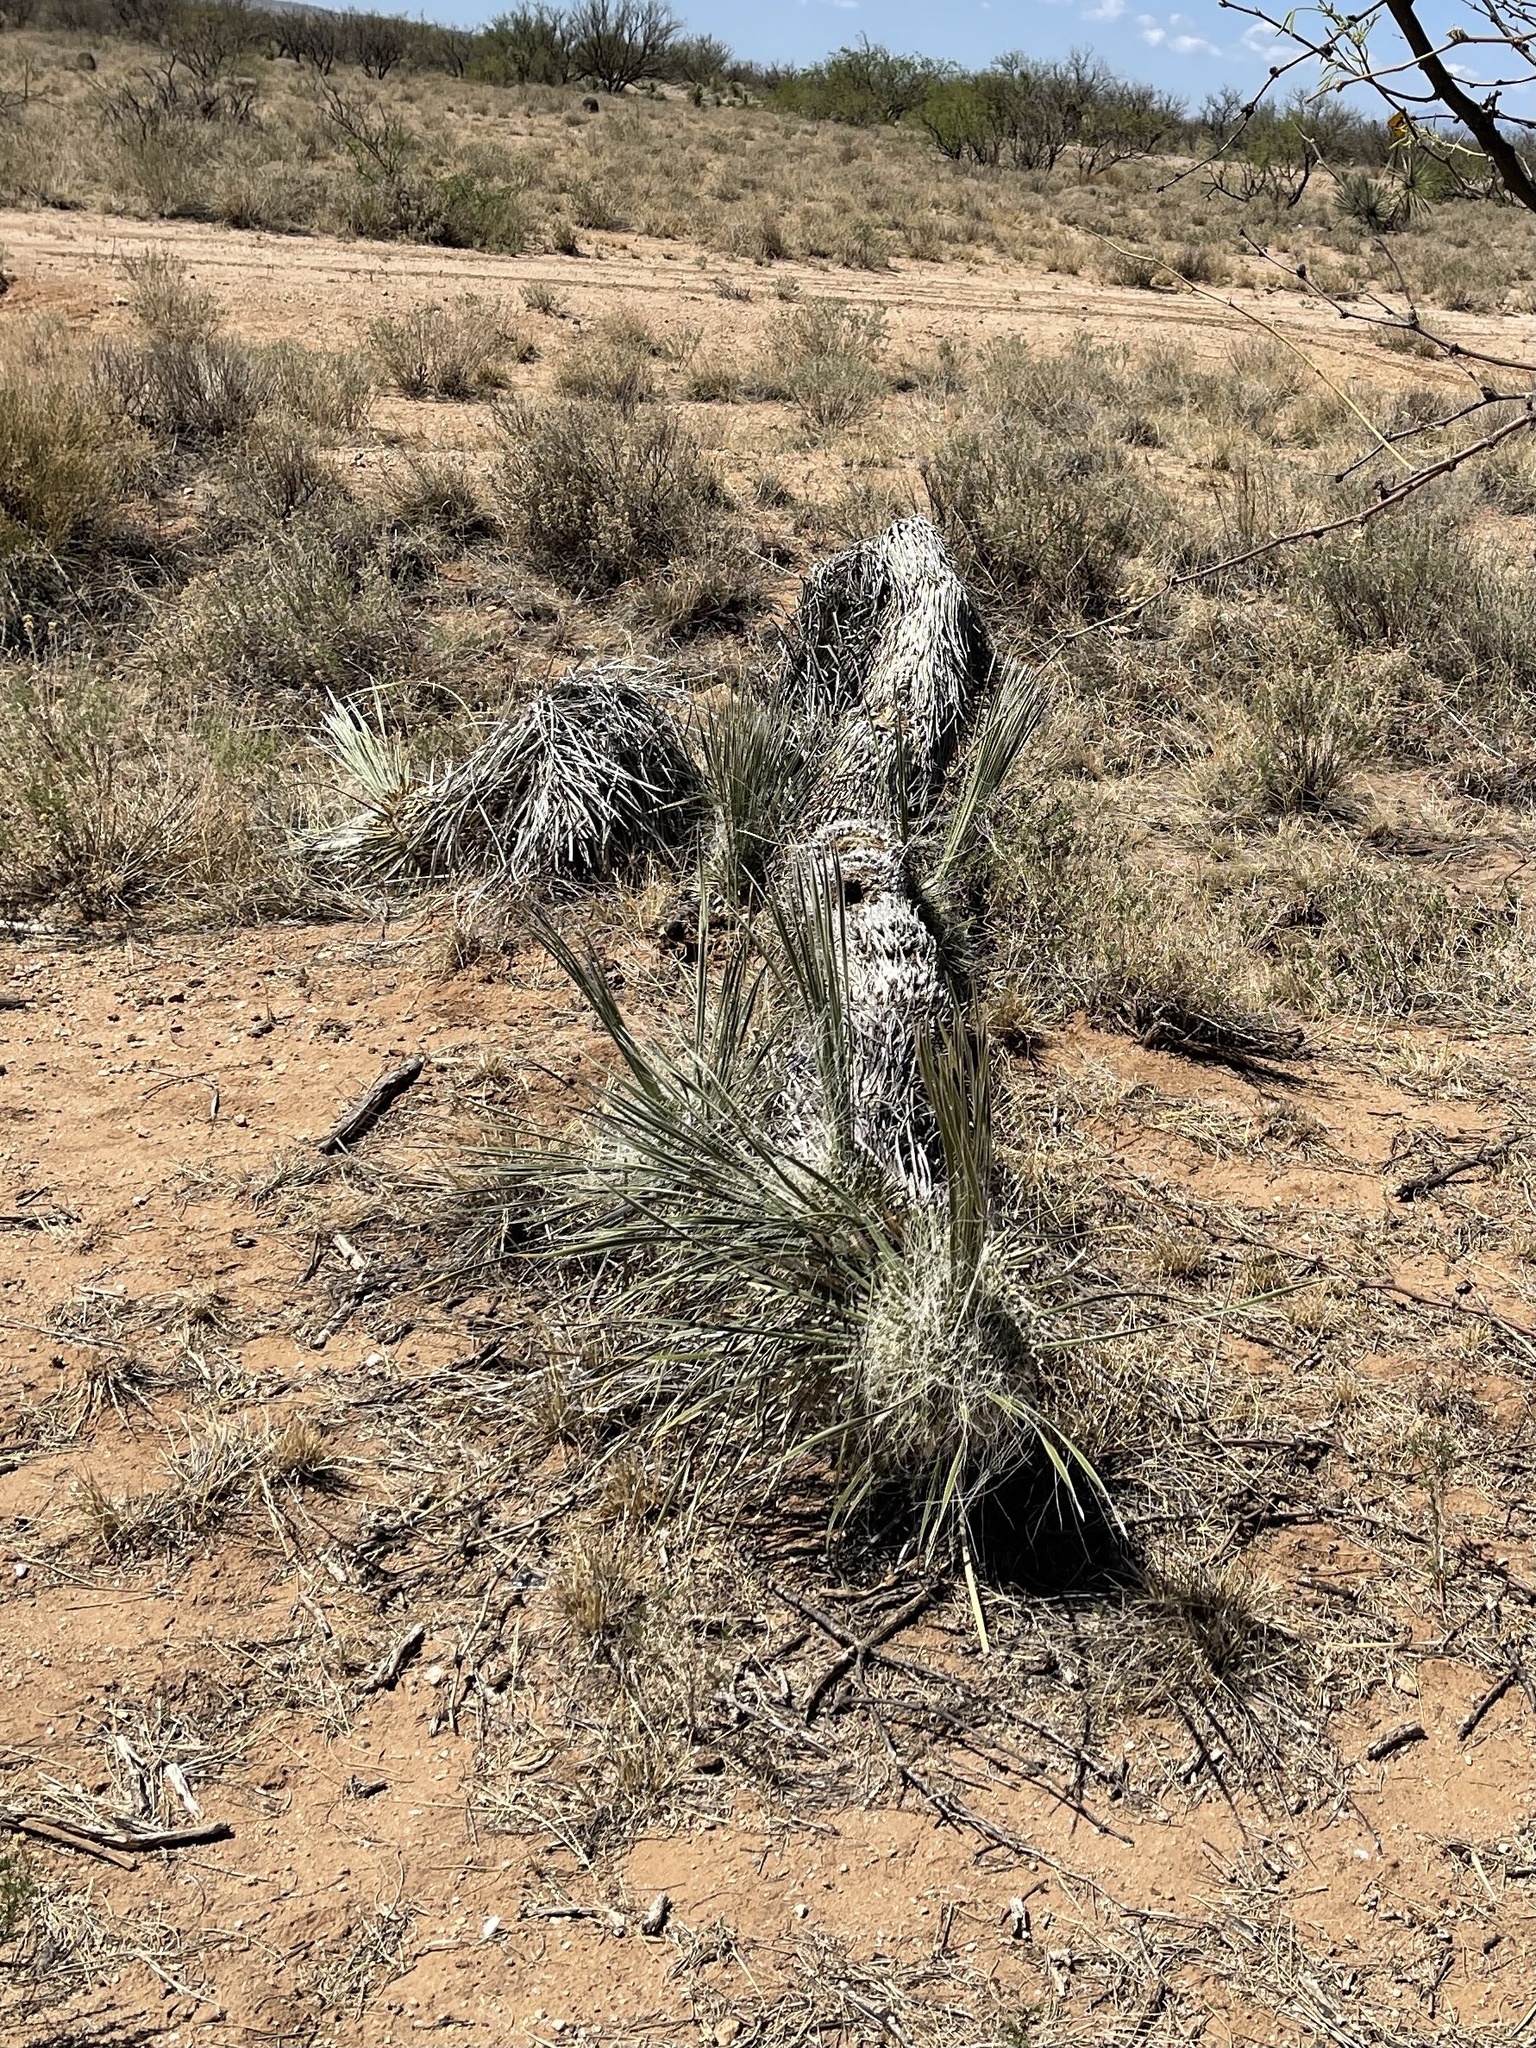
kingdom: Plantae
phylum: Tracheophyta
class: Liliopsida
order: Asparagales
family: Asparagaceae
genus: Yucca
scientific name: Yucca elata
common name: Palmella
